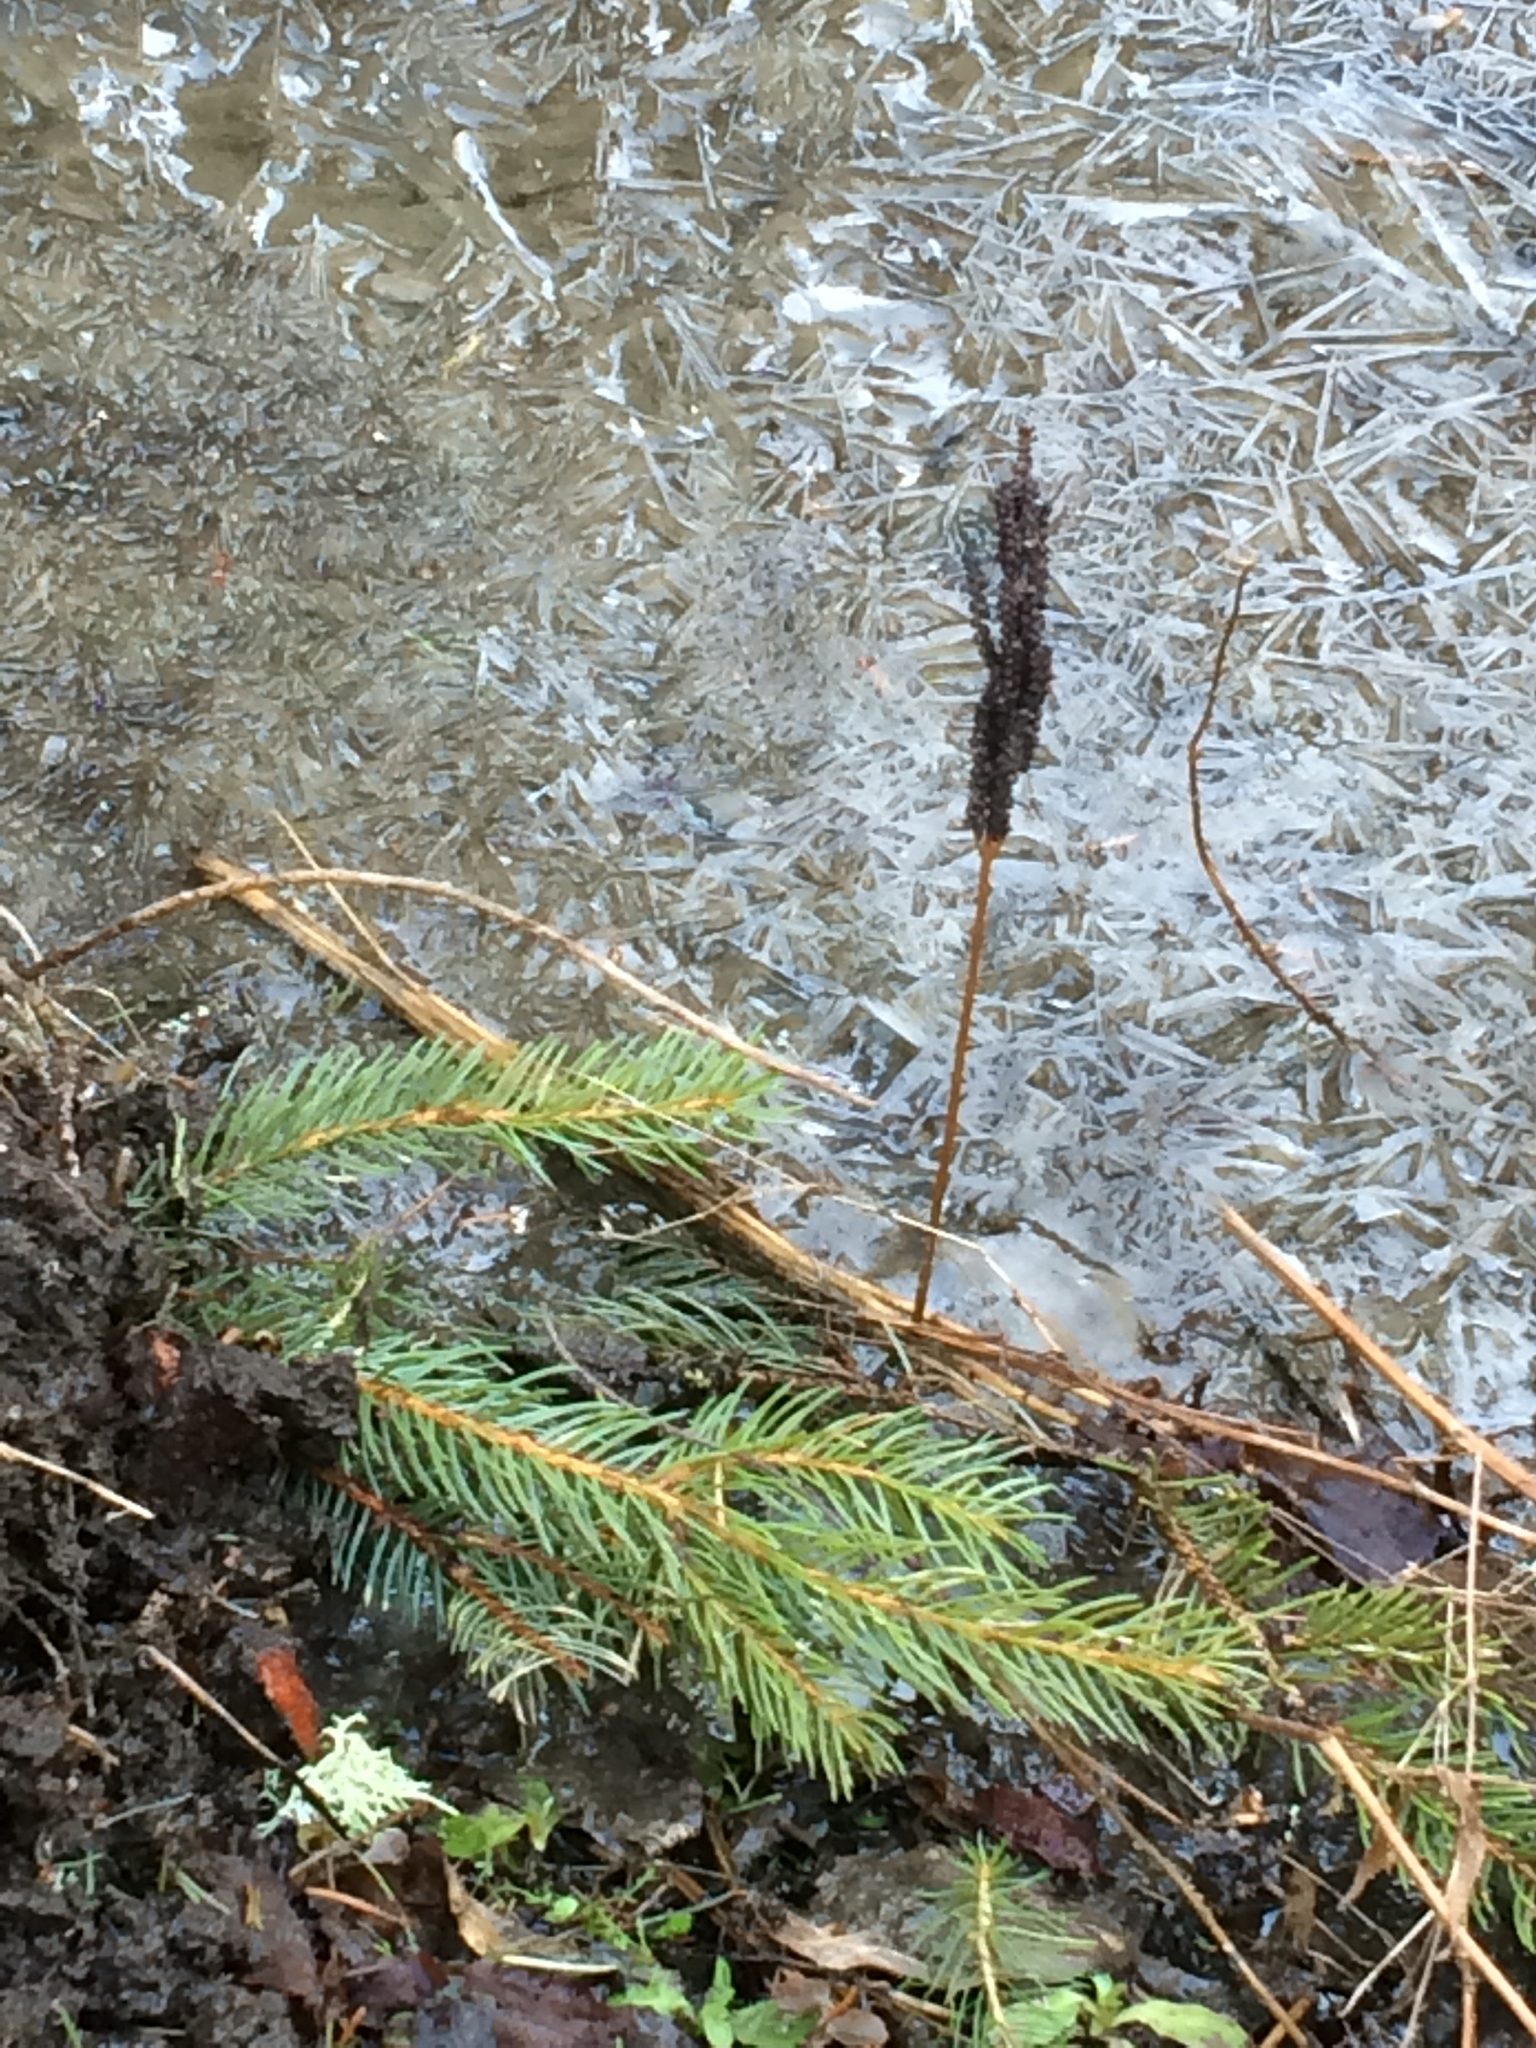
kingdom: Plantae
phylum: Tracheophyta
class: Polypodiopsida
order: Polypodiales
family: Onocleaceae
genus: Onoclea
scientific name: Onoclea sensibilis
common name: Sensitive fern
